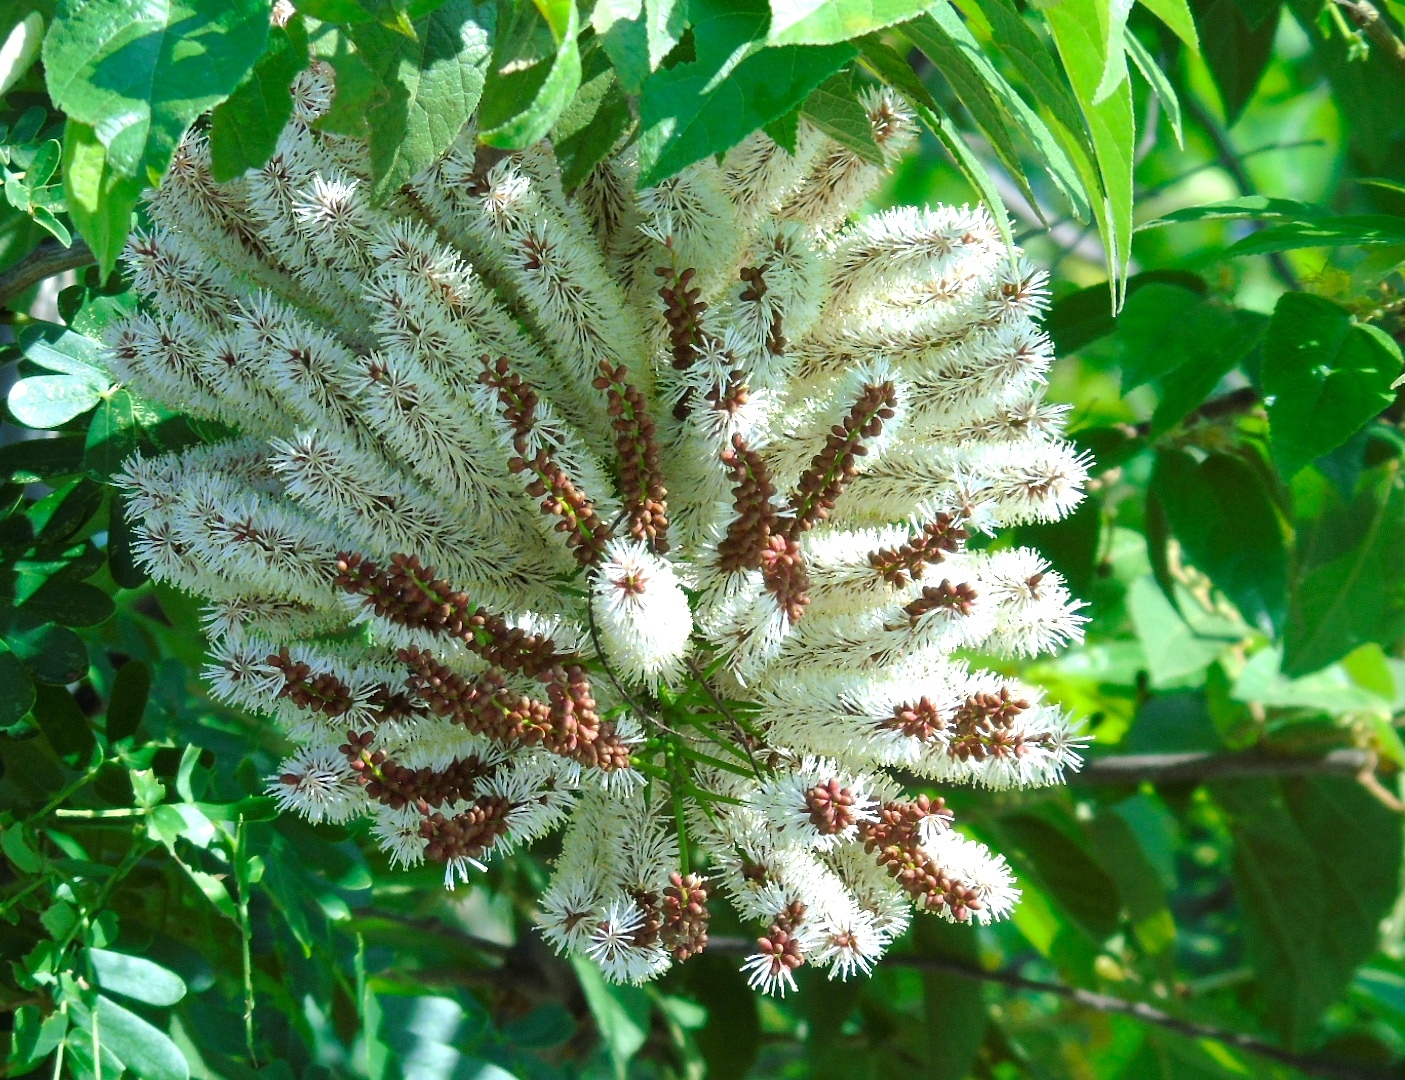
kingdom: Plantae
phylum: Tracheophyta
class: Magnoliopsida
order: Fabales
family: Fabaceae
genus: Entada
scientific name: Entada polystachya
